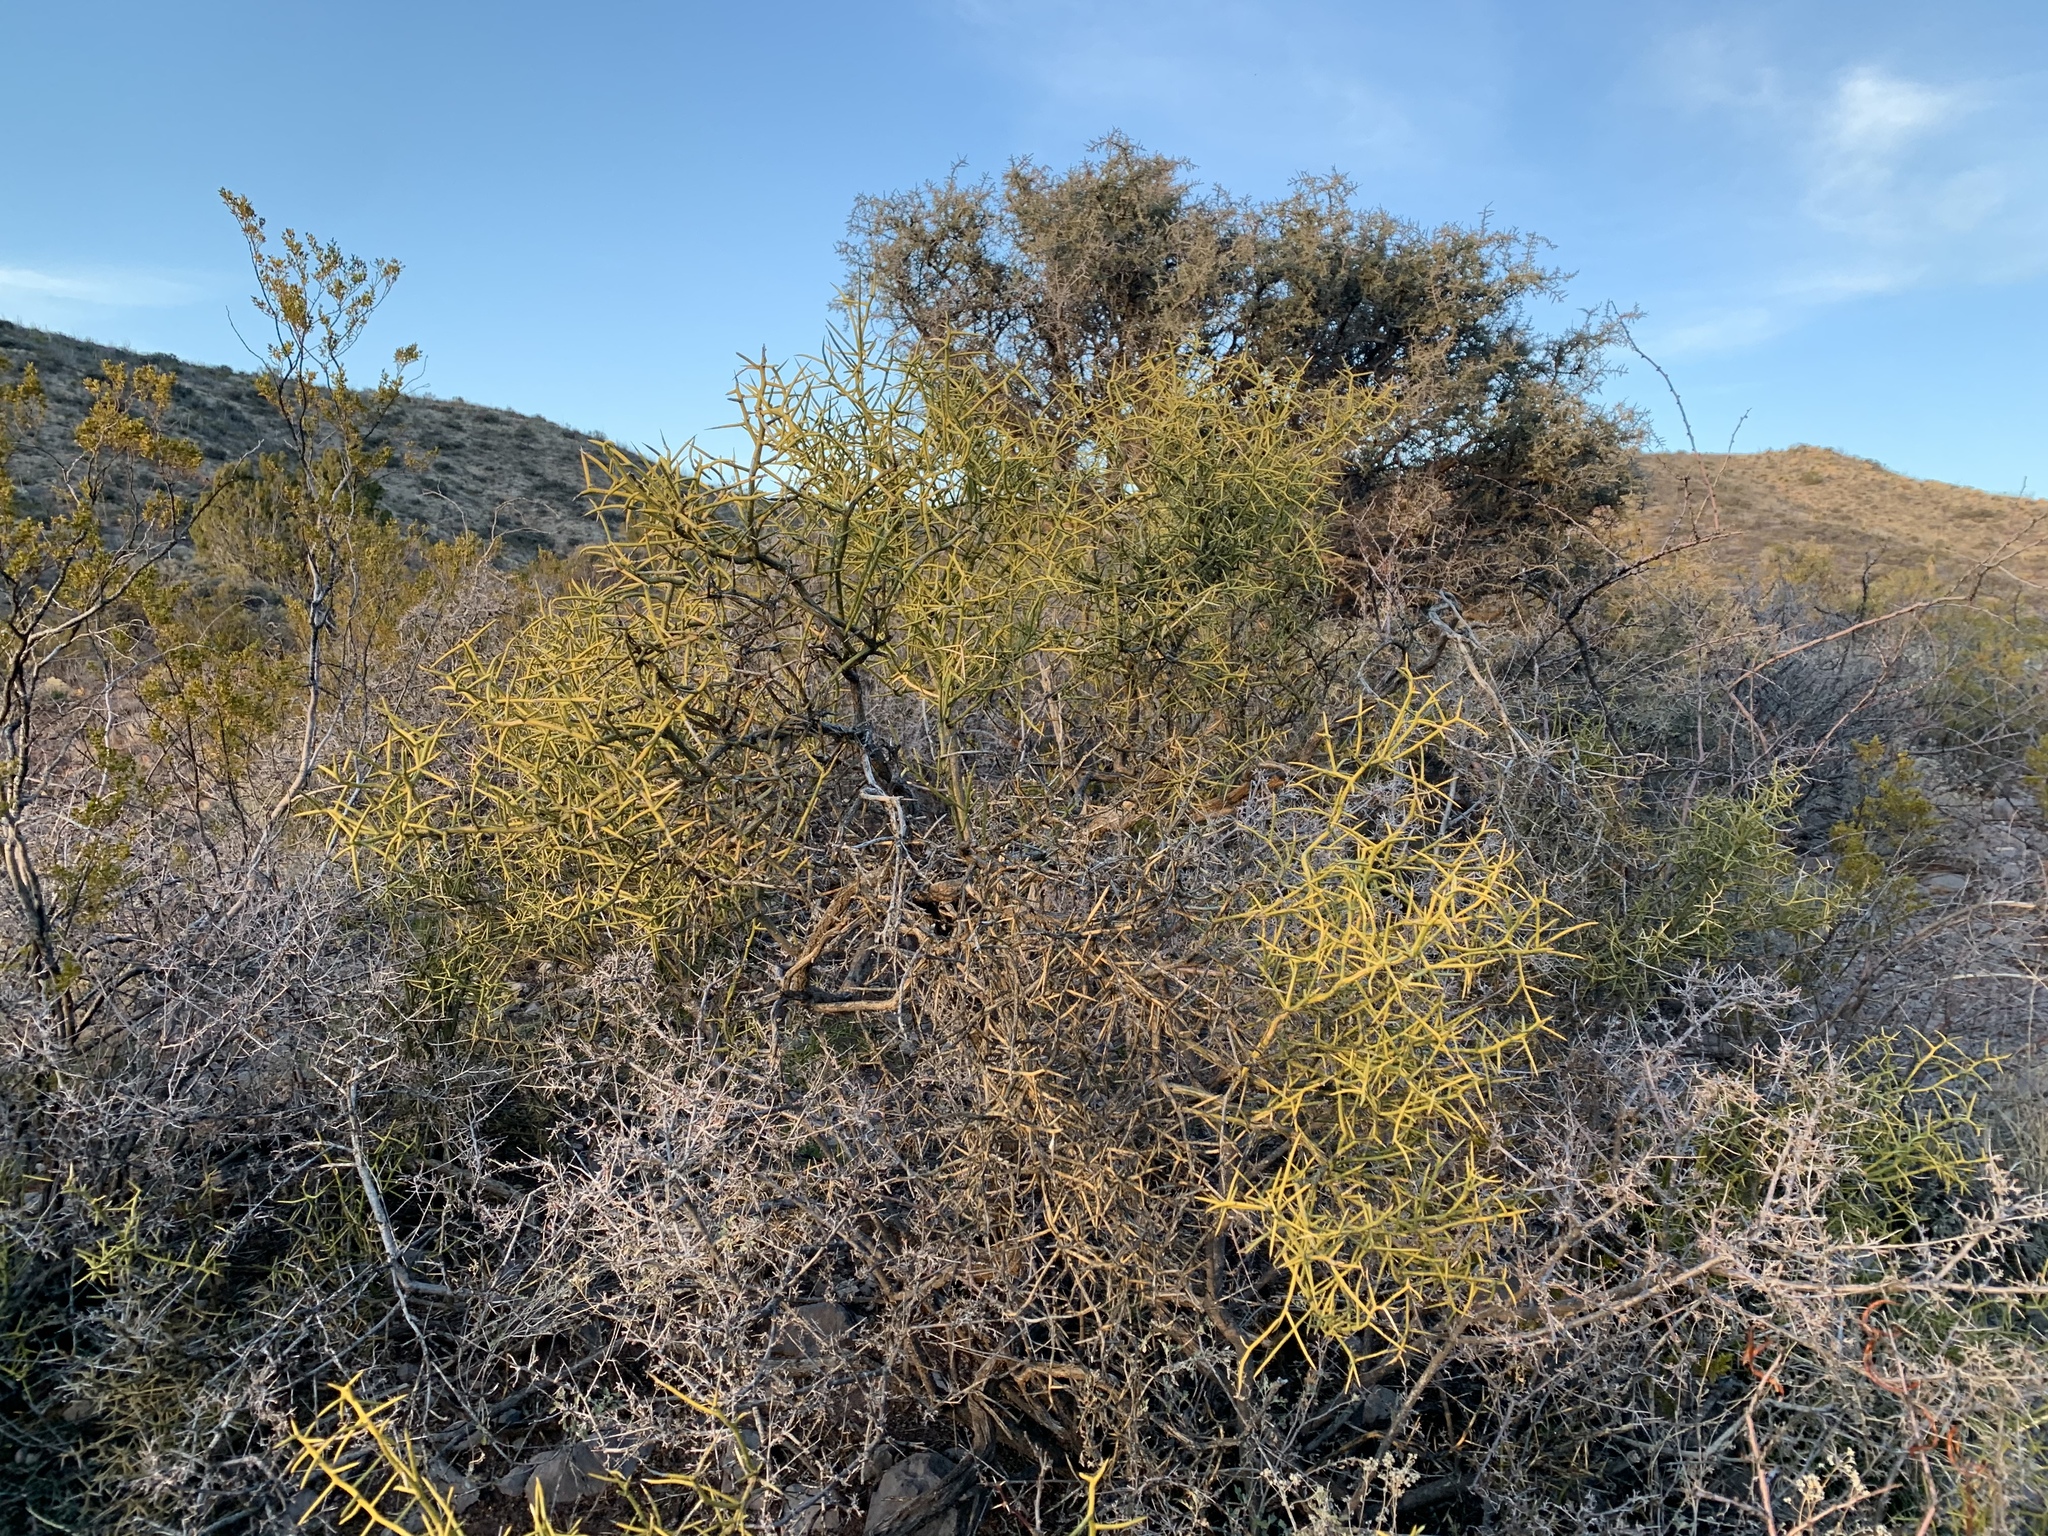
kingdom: Plantae
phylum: Tracheophyta
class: Magnoliopsida
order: Brassicales
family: Koeberliniaceae
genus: Koeberlinia
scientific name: Koeberlinia spinosa
